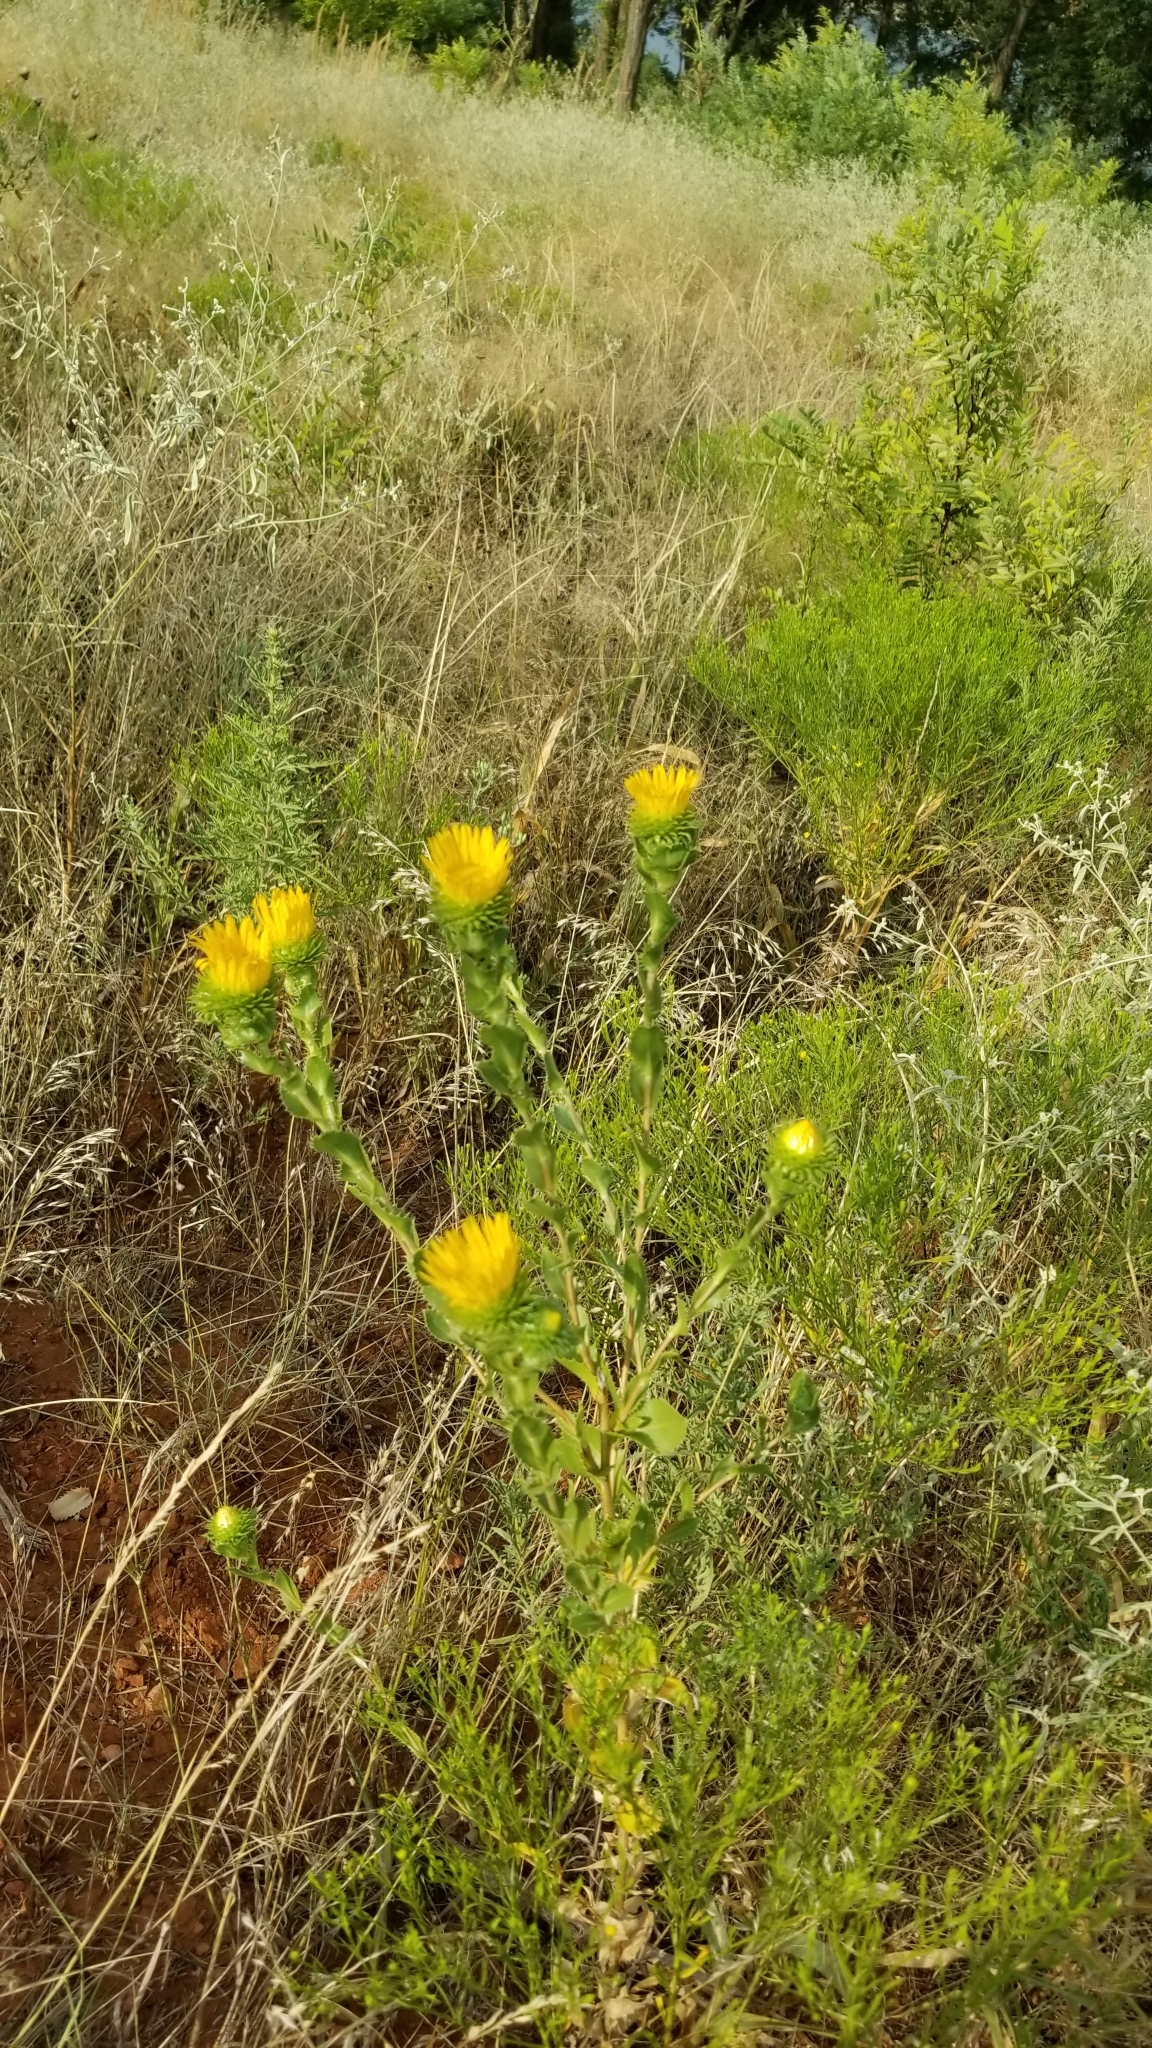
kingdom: Plantae
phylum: Tracheophyta
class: Magnoliopsida
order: Asterales
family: Asteraceae
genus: Grindelia
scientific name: Grindelia ciliata
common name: Goldenweed
